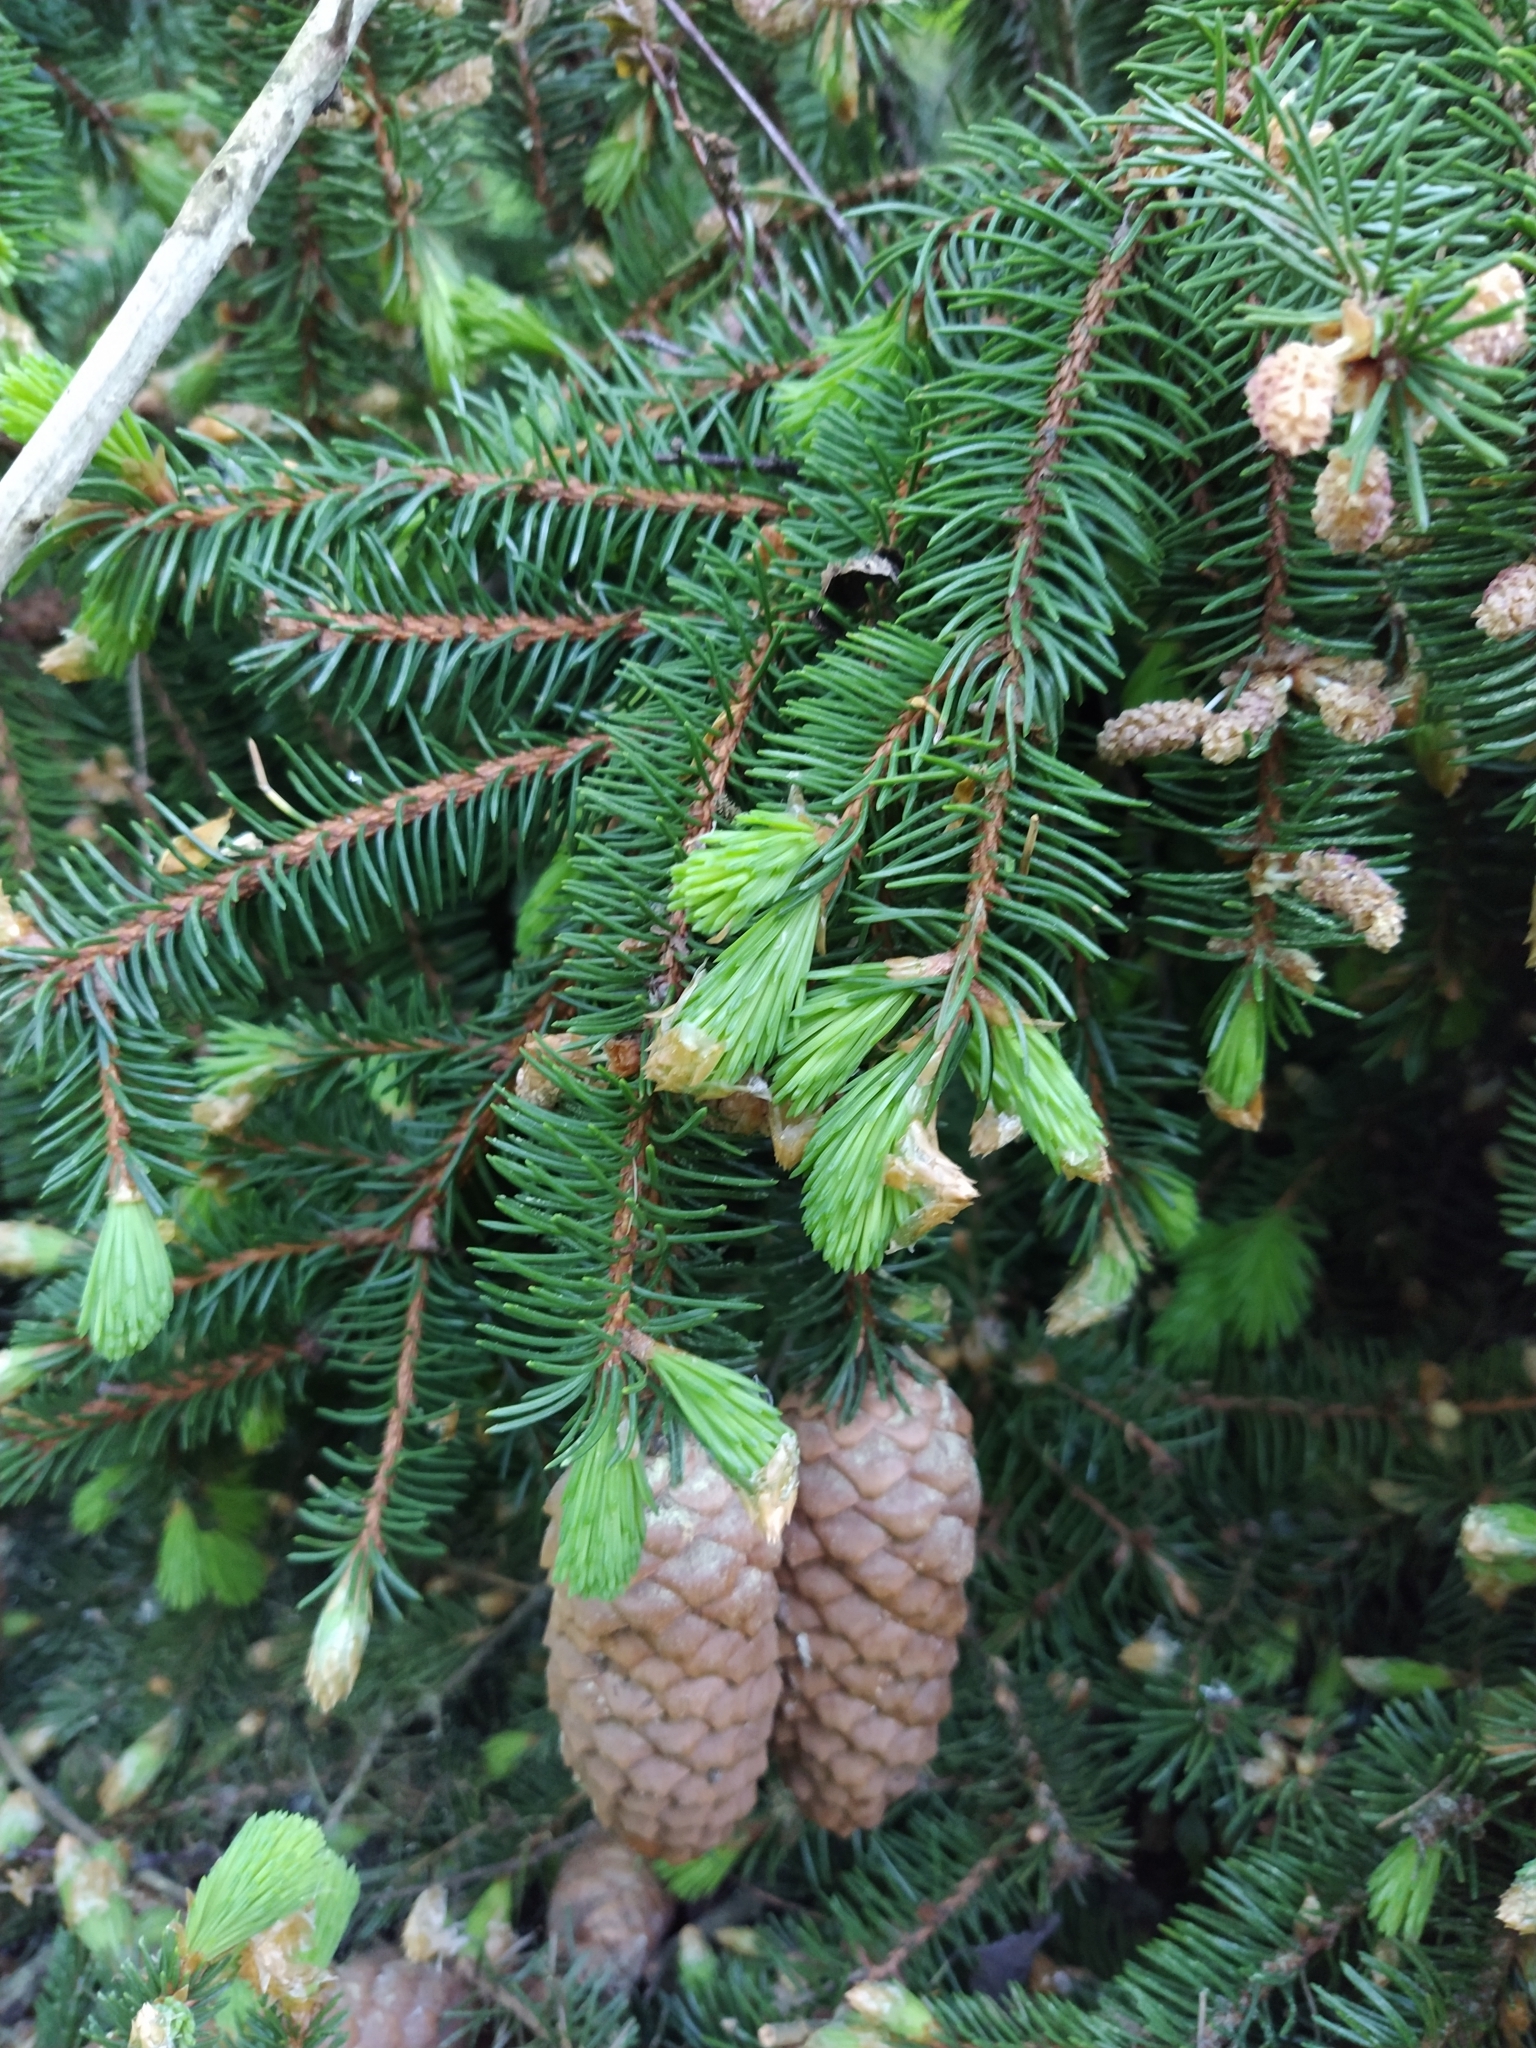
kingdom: Plantae
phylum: Tracheophyta
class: Pinopsida
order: Pinales
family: Pinaceae
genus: Picea
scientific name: Picea abies
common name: Norway spruce
